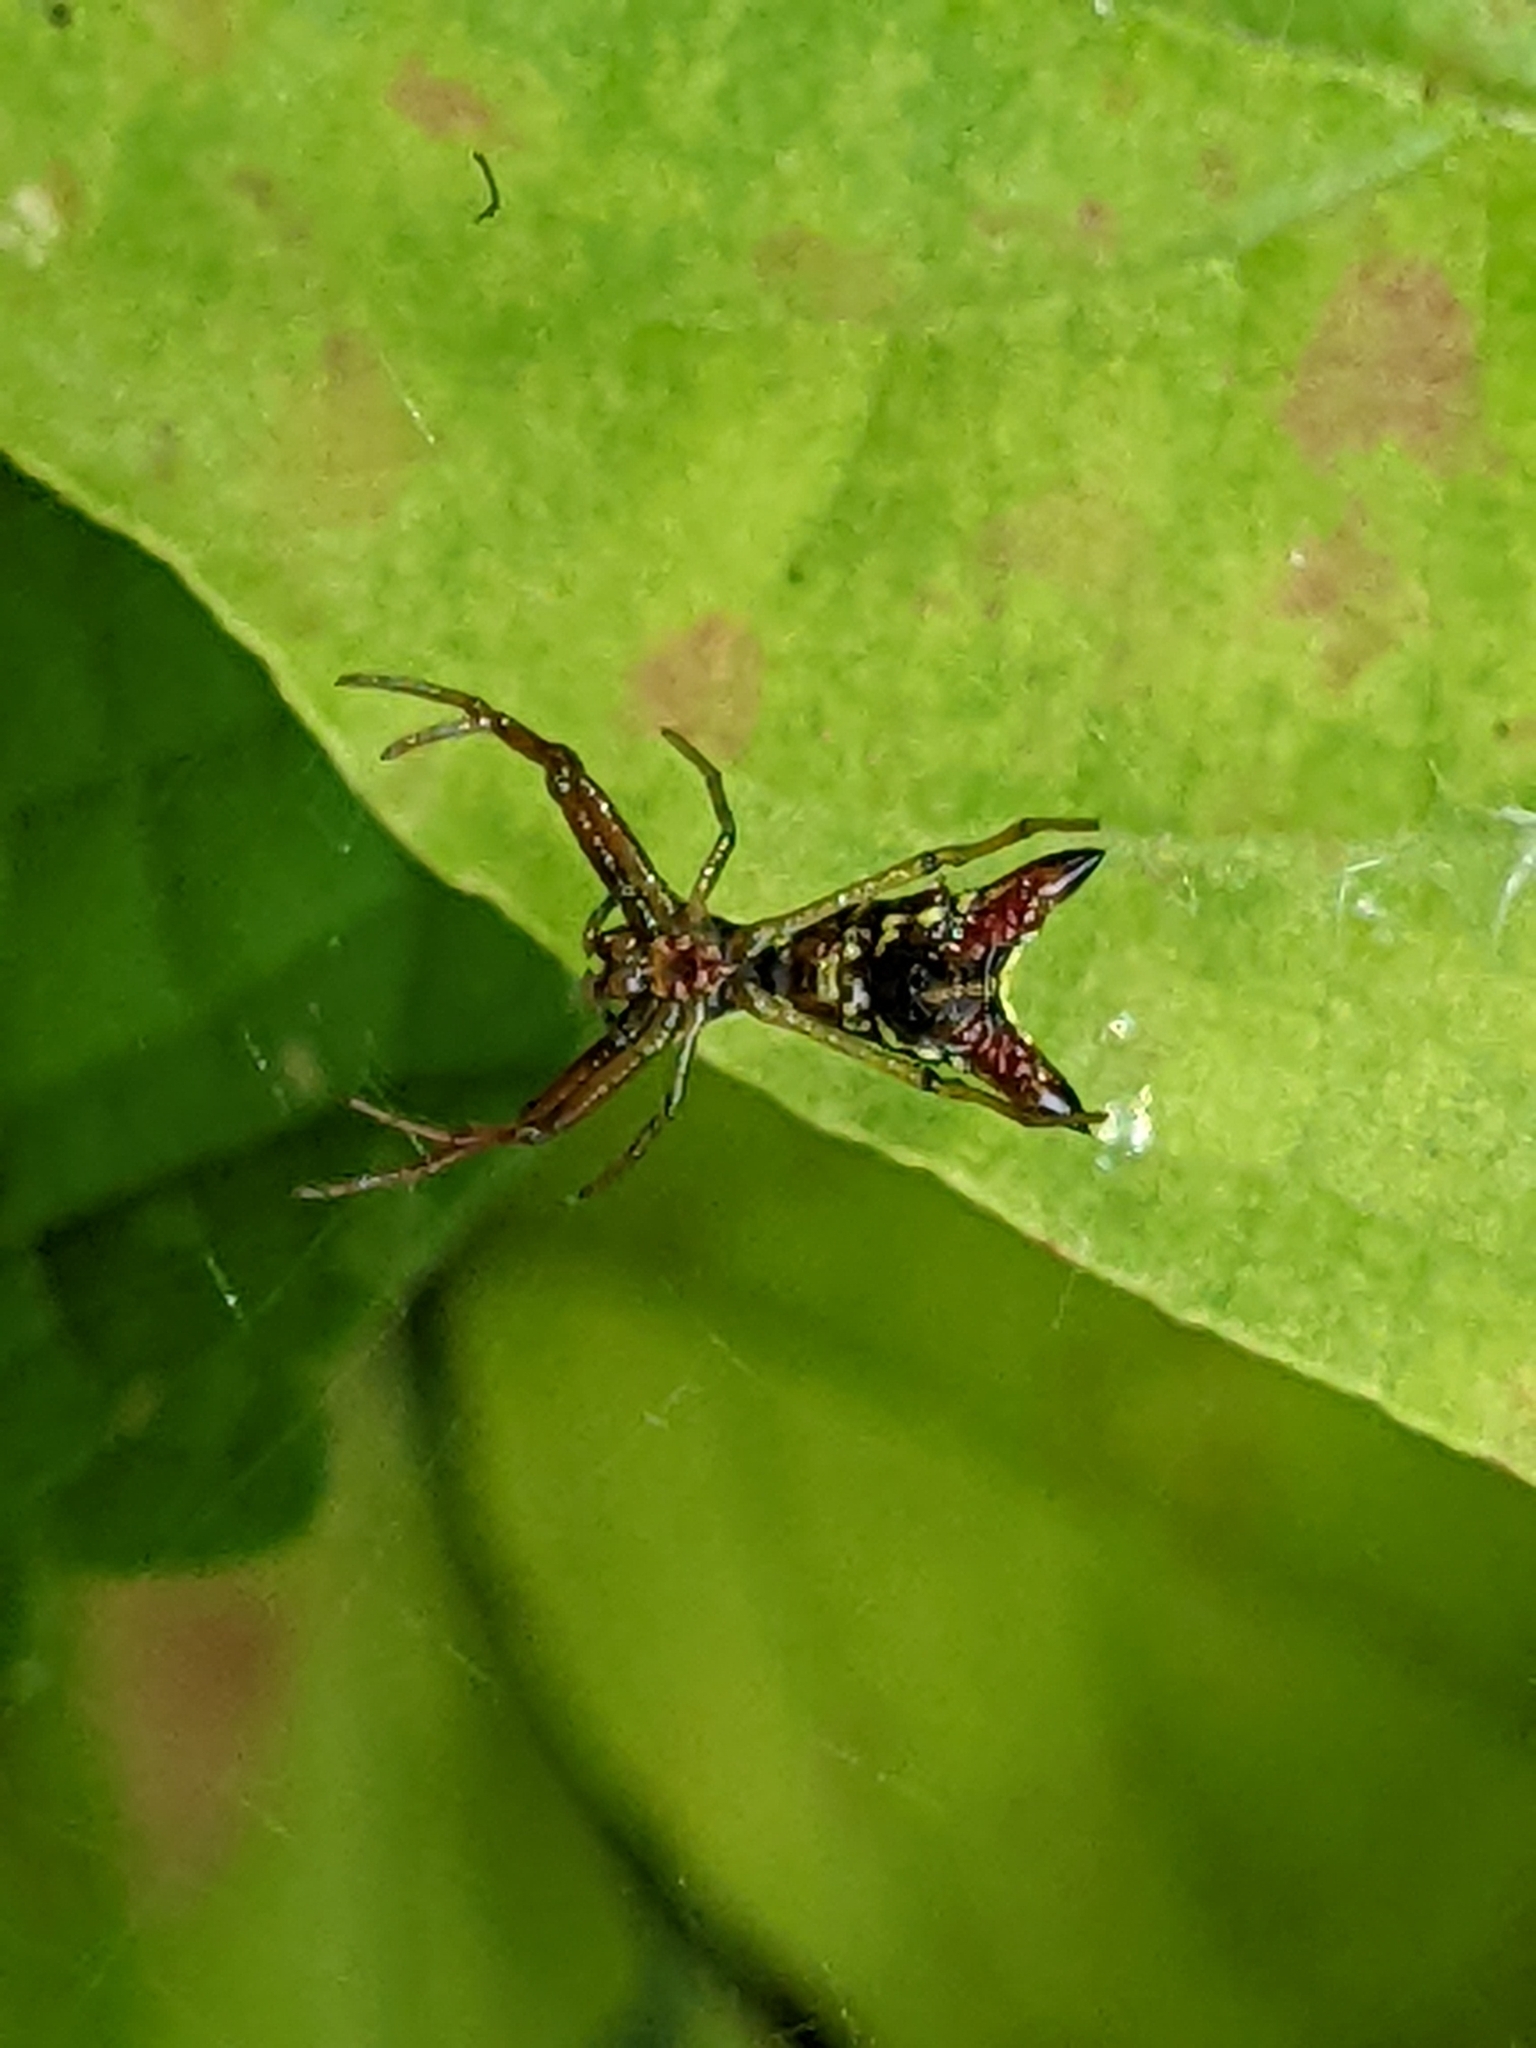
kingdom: Animalia
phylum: Arthropoda
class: Arachnida
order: Araneae
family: Araneidae
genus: Micrathena
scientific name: Micrathena sagittata
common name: Orb weavers
